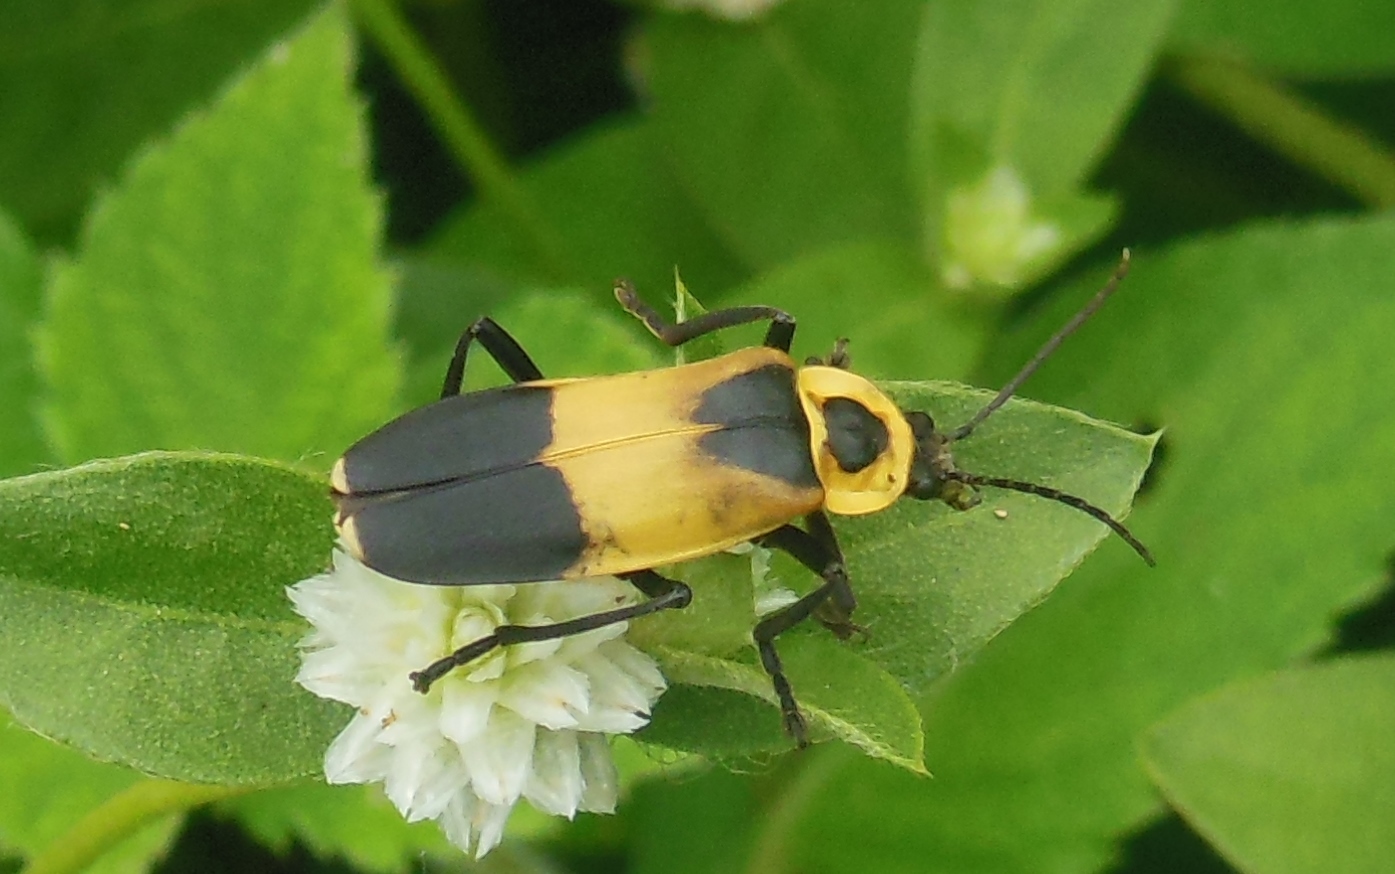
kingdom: Animalia
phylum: Arthropoda
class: Insecta
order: Coleoptera
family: Cantharidae
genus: Chauliognathus
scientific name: Chauliognathus
